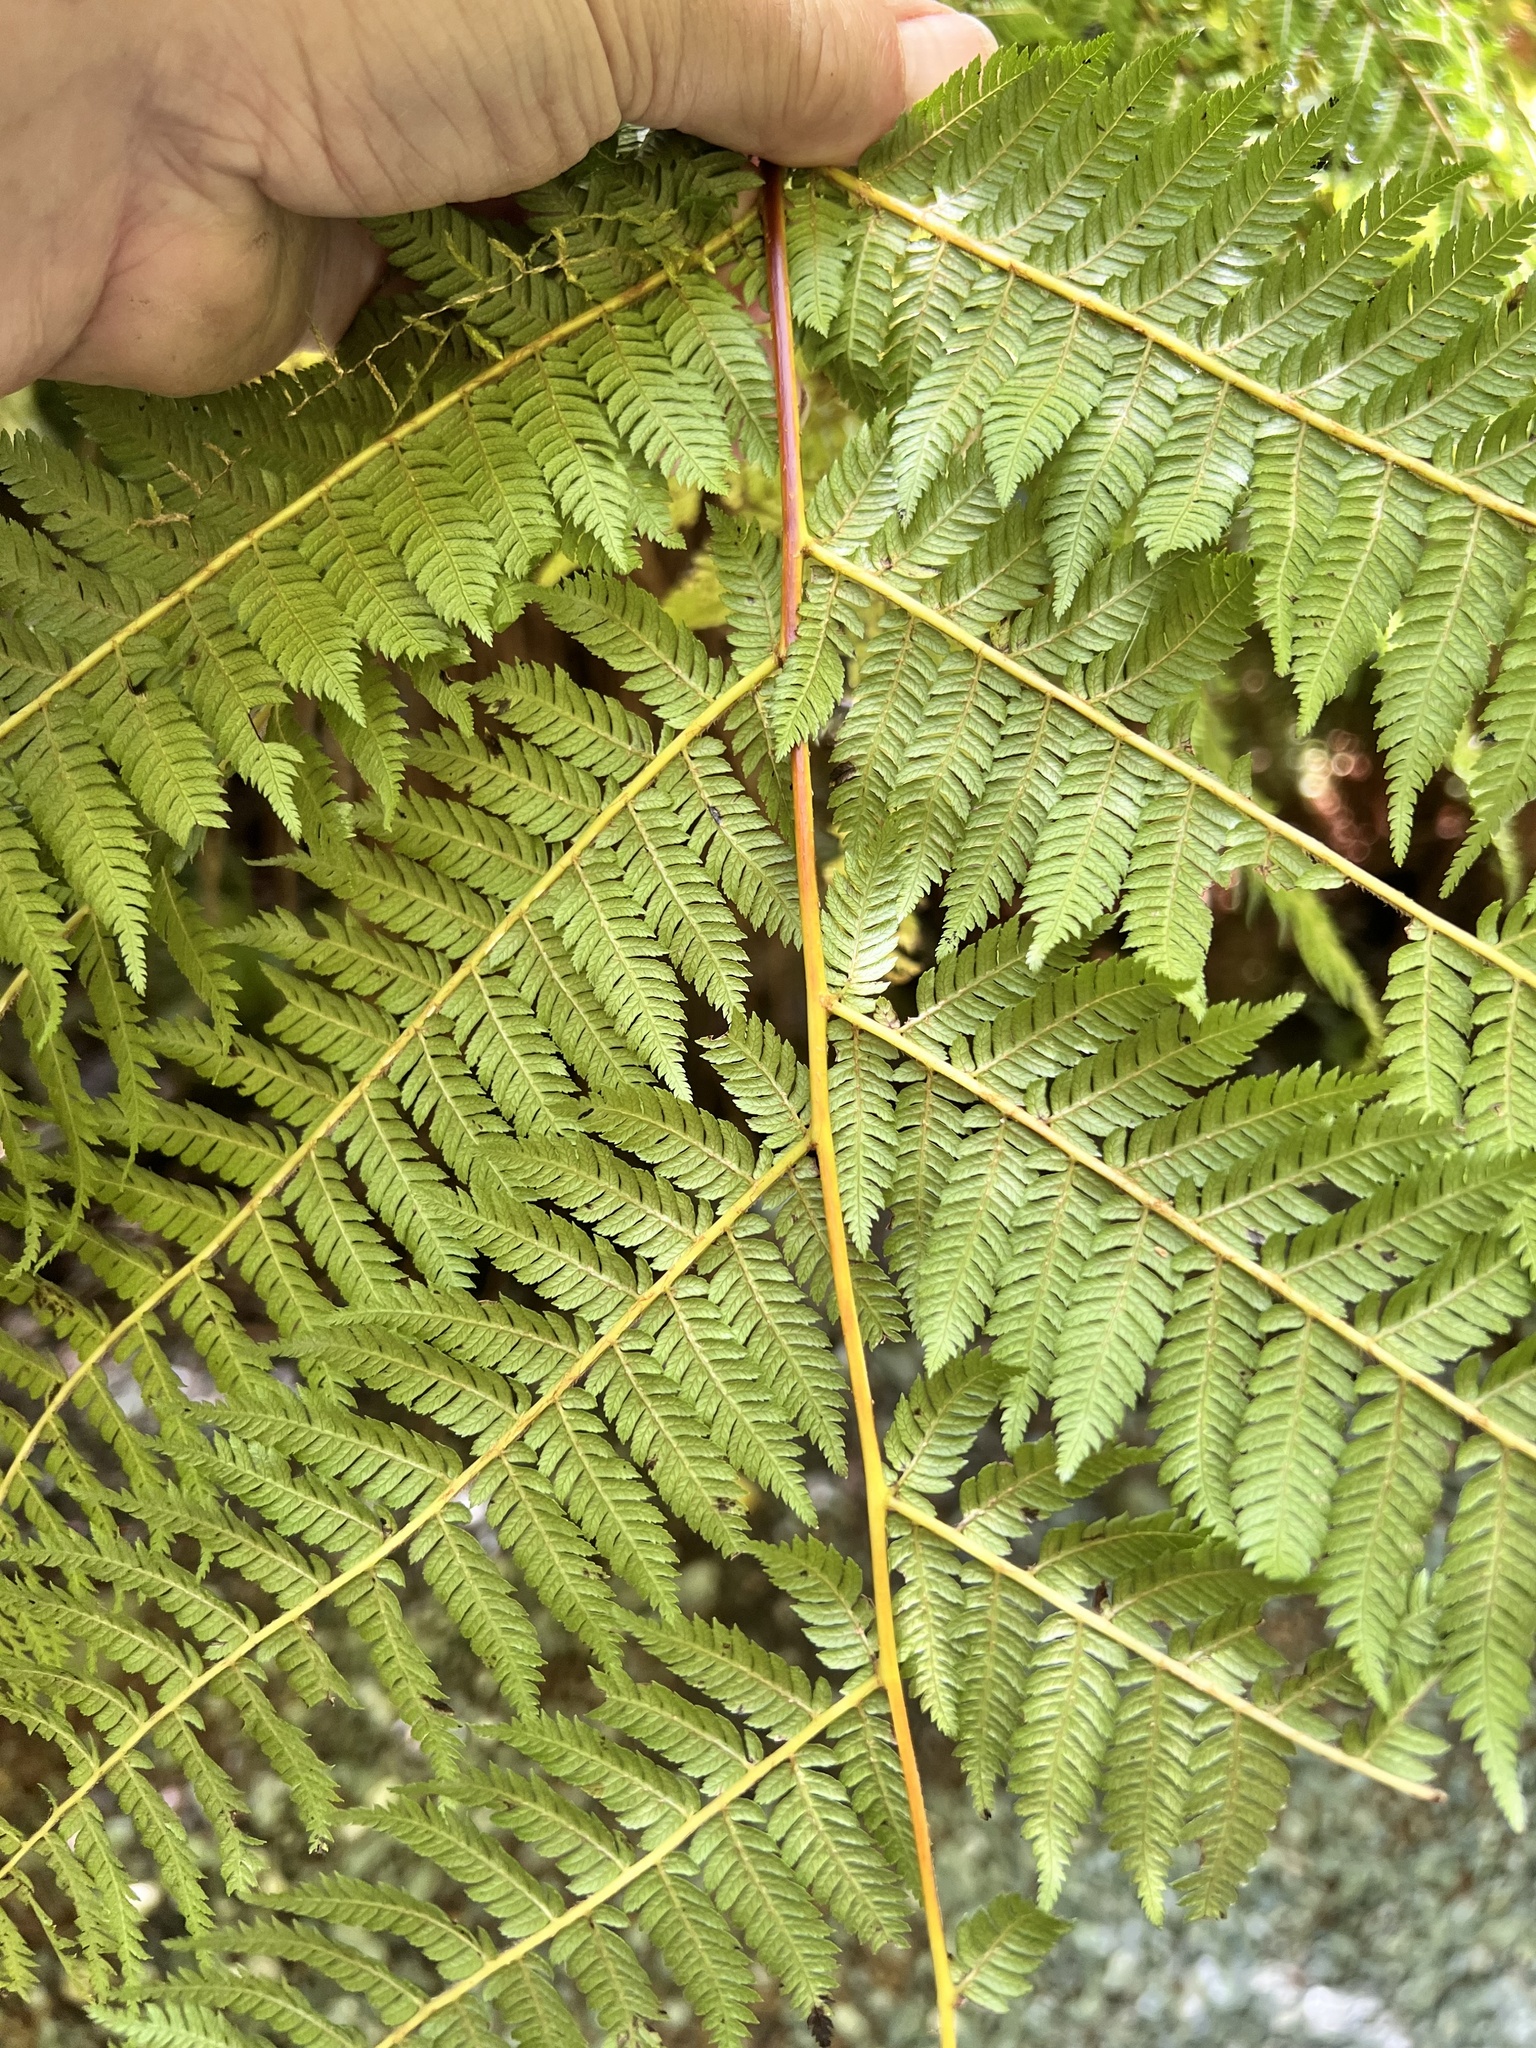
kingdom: Plantae
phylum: Tracheophyta
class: Polypodiopsida
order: Cyatheales
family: Cyatheaceae
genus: Alsophila
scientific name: Alsophila smithii
